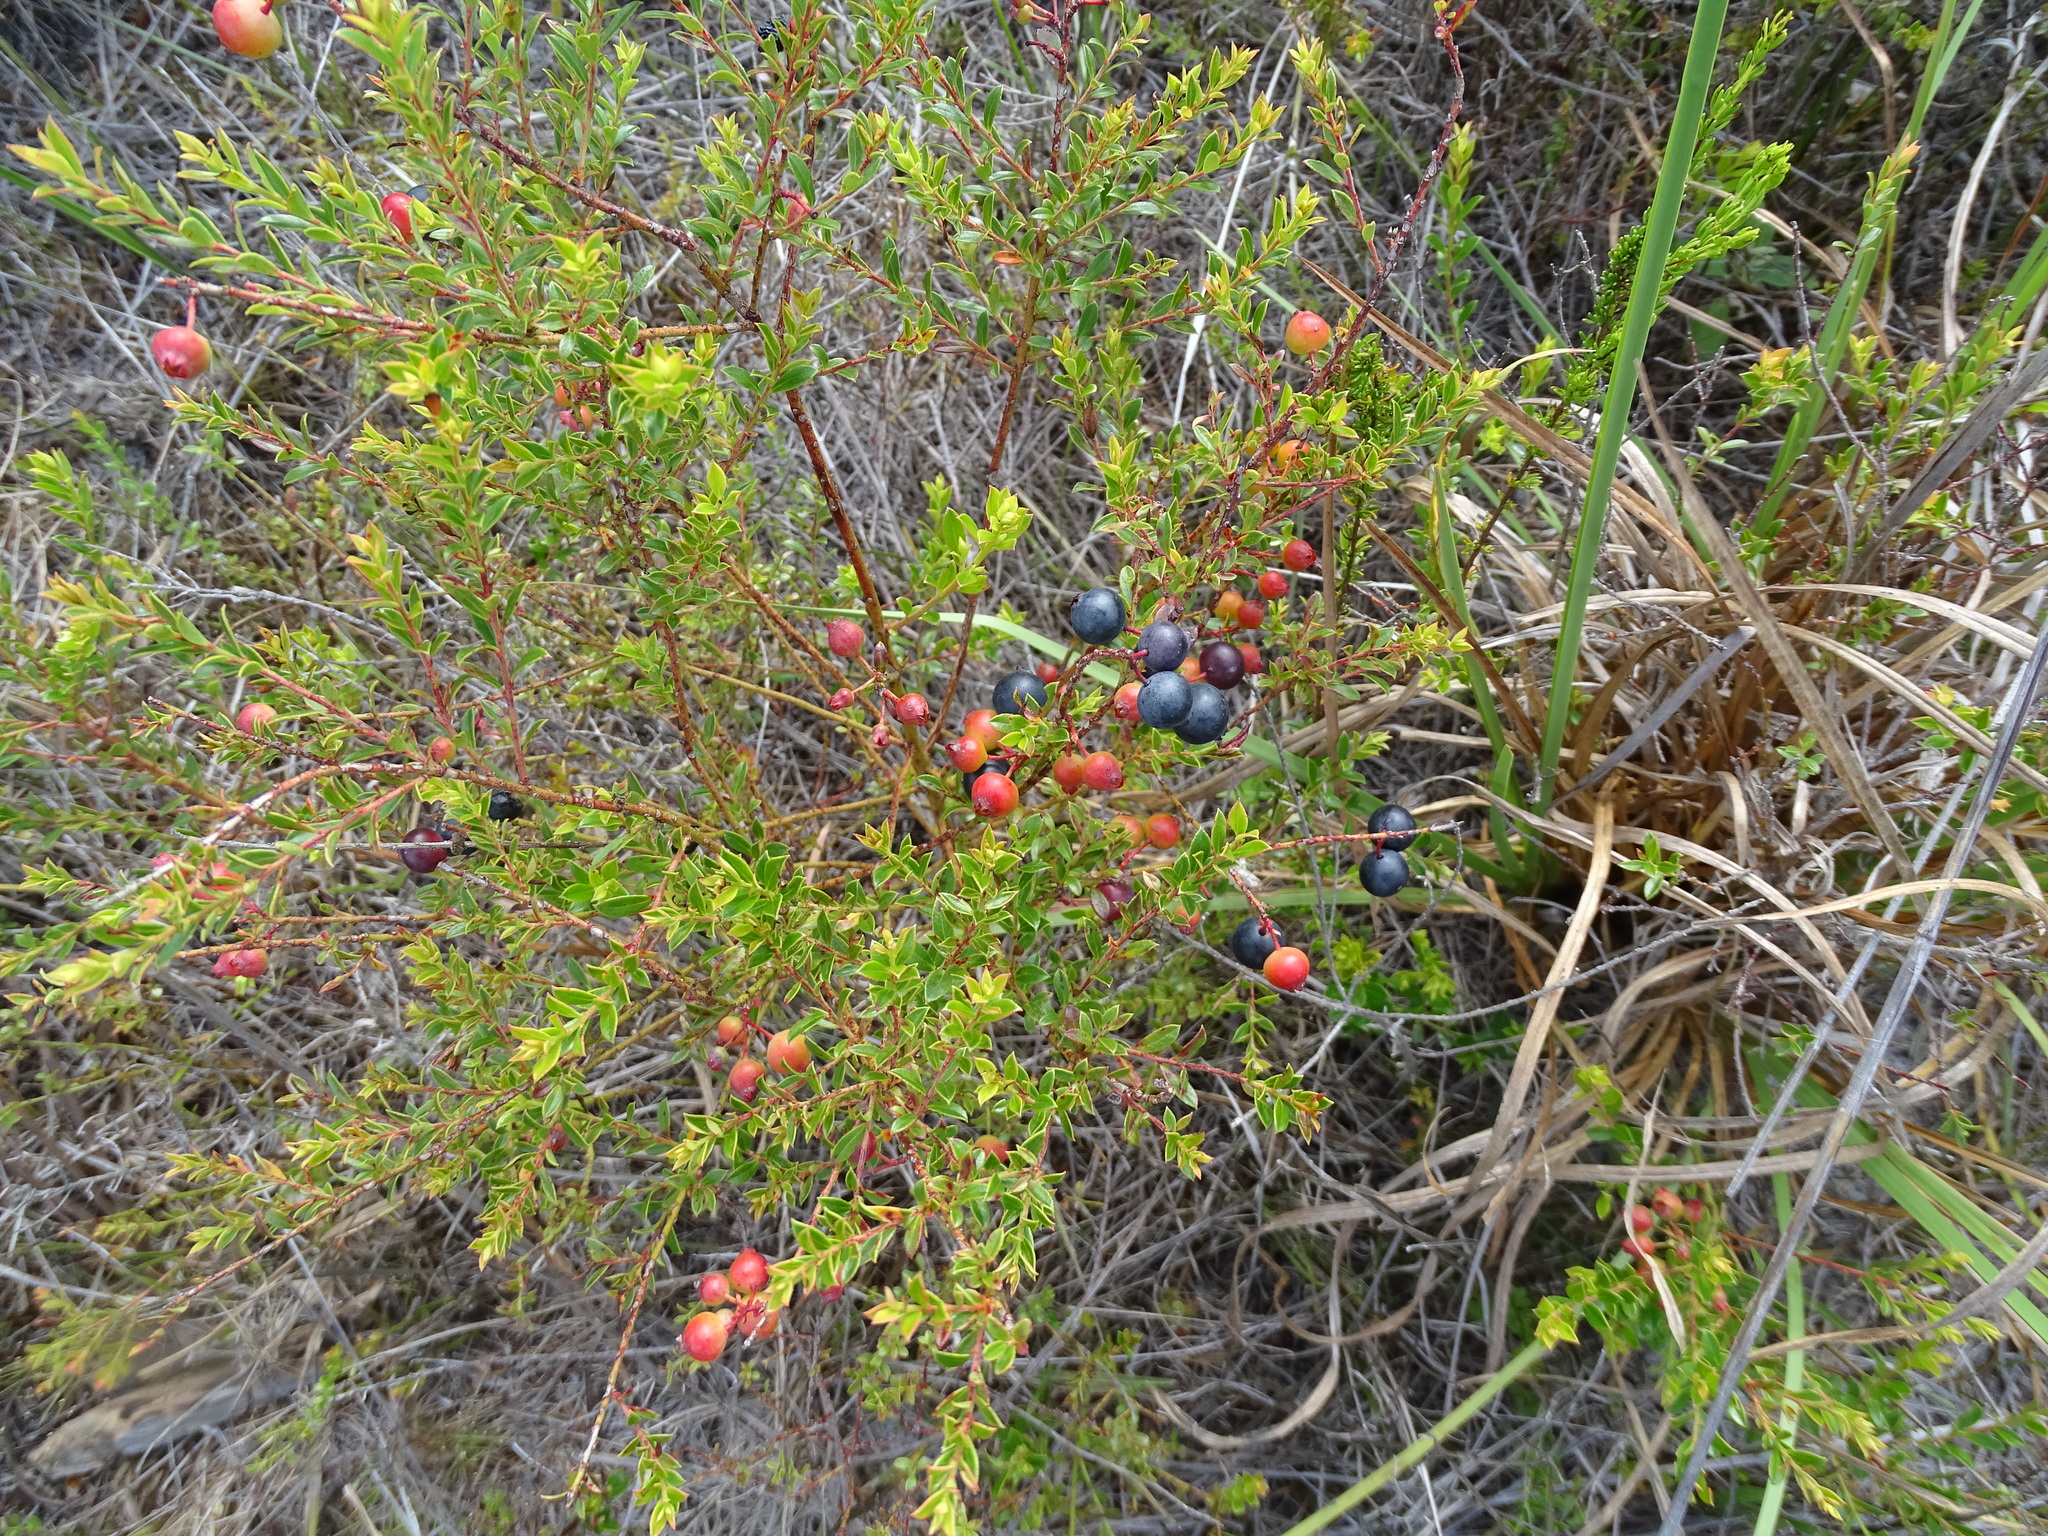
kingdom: Plantae
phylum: Tracheophyta
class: Magnoliopsida
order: Ericales
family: Ericaceae
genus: Vaccinium
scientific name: Vaccinium myrsinites
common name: Evergreen blueberry
